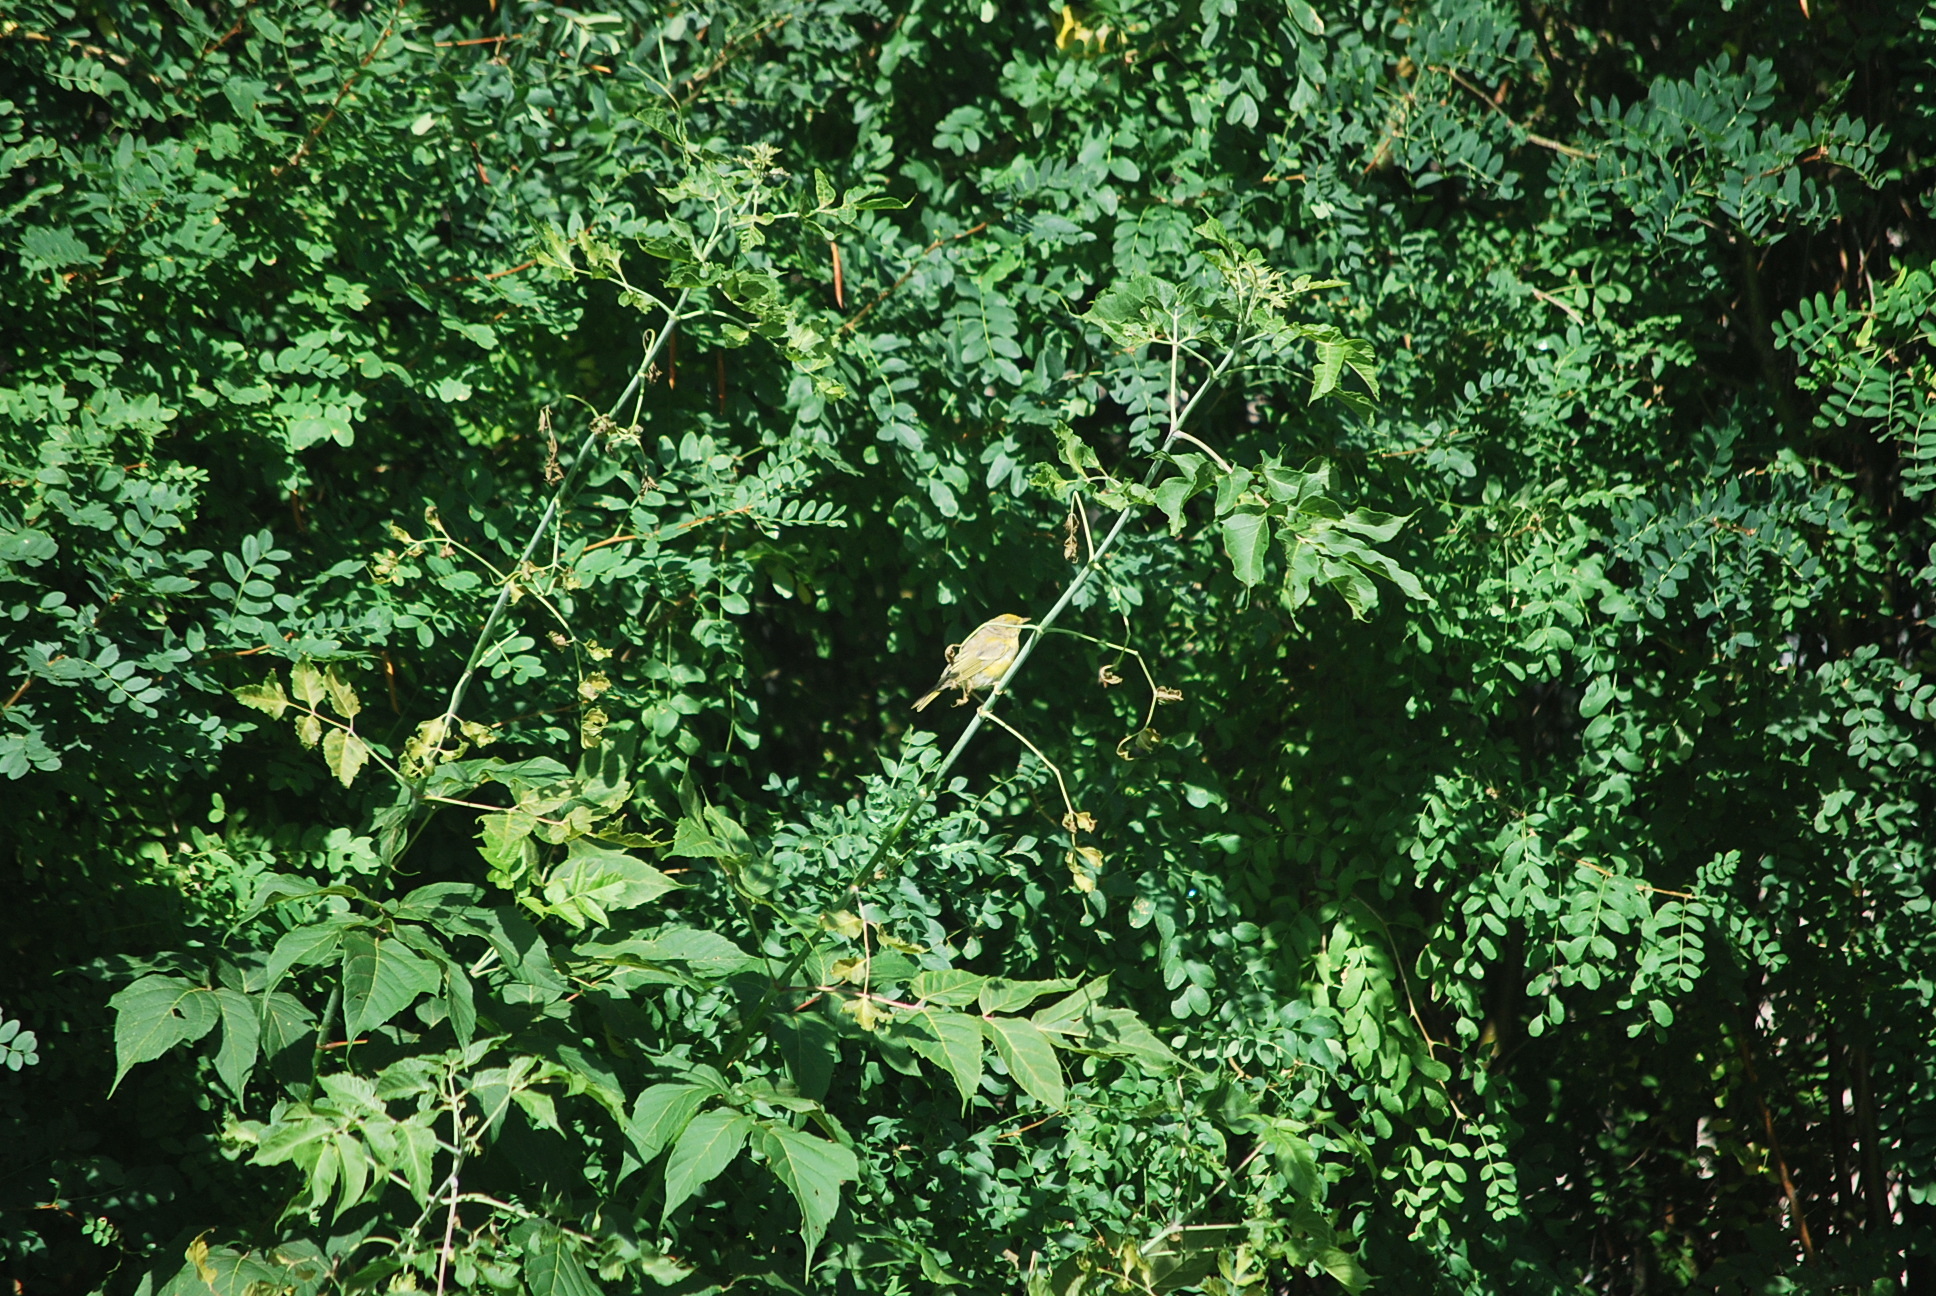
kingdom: Animalia
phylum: Chordata
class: Aves
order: Passeriformes
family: Parulidae
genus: Setophaga
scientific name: Setophaga petechia
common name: Yellow warbler
